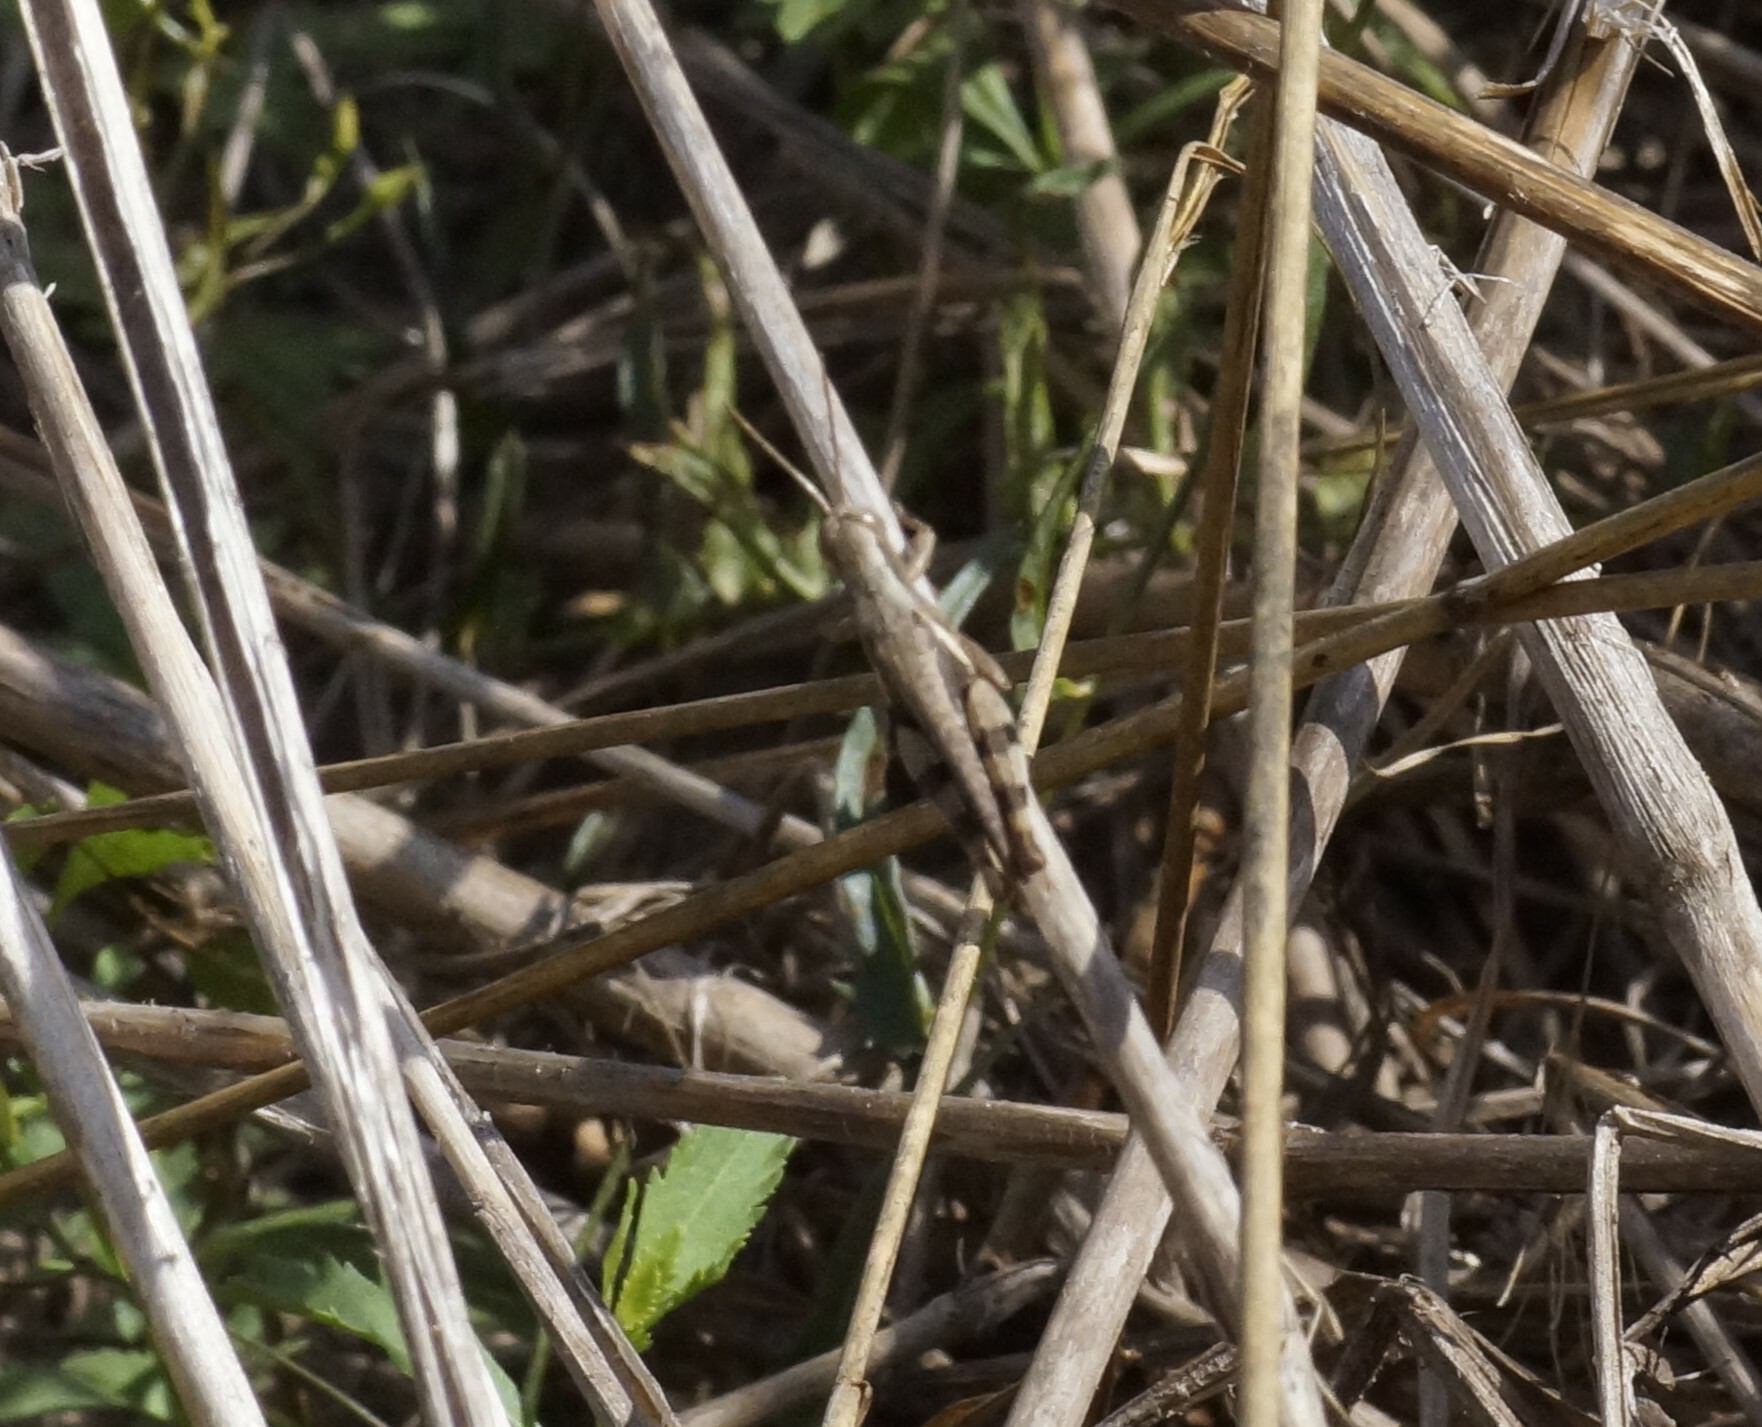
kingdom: Animalia
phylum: Arthropoda
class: Insecta
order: Orthoptera
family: Acrididae
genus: Stenocatantops
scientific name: Stenocatantops angustifrons
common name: Common tropical sharptail
